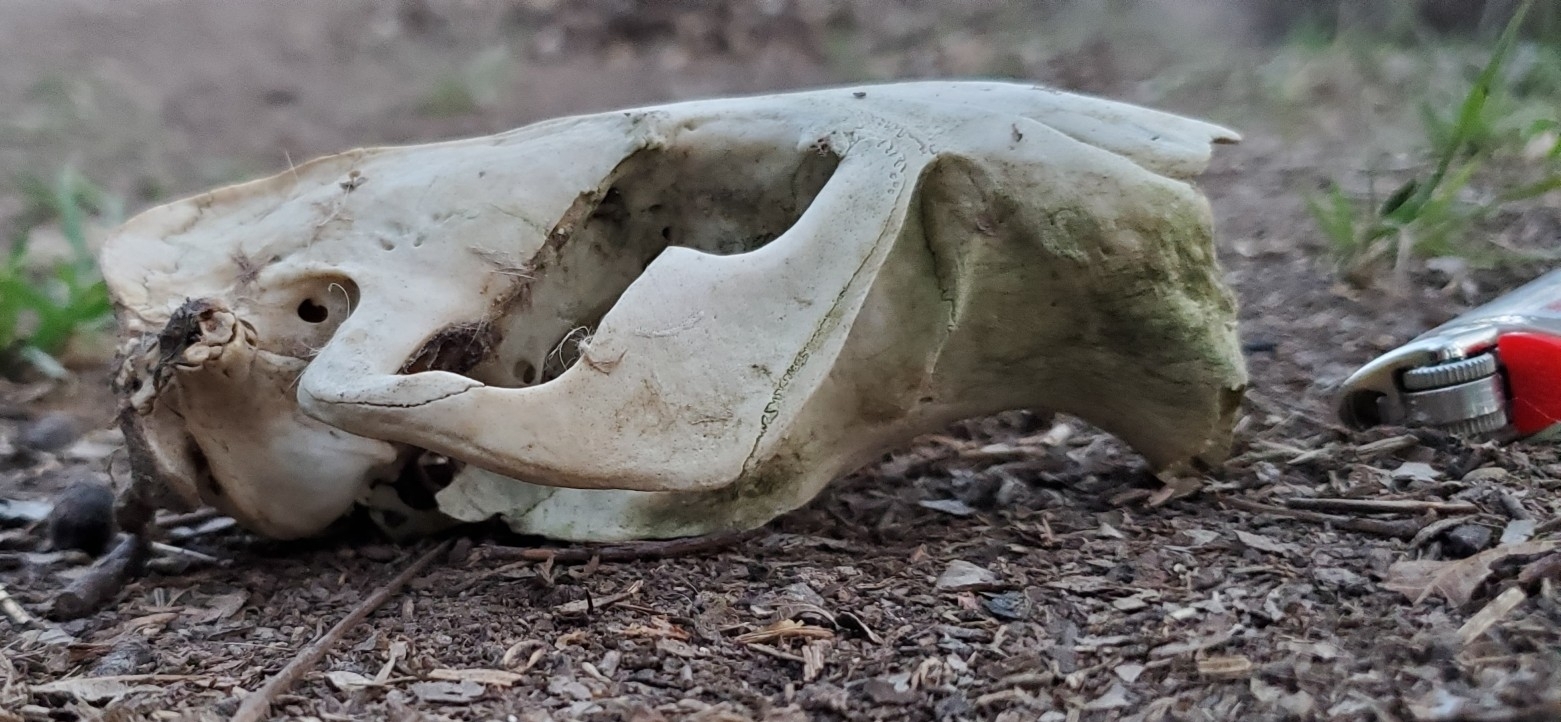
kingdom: Animalia
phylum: Chordata
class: Mammalia
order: Rodentia
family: Castoridae
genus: Castor
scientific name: Castor canadensis
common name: American beaver
